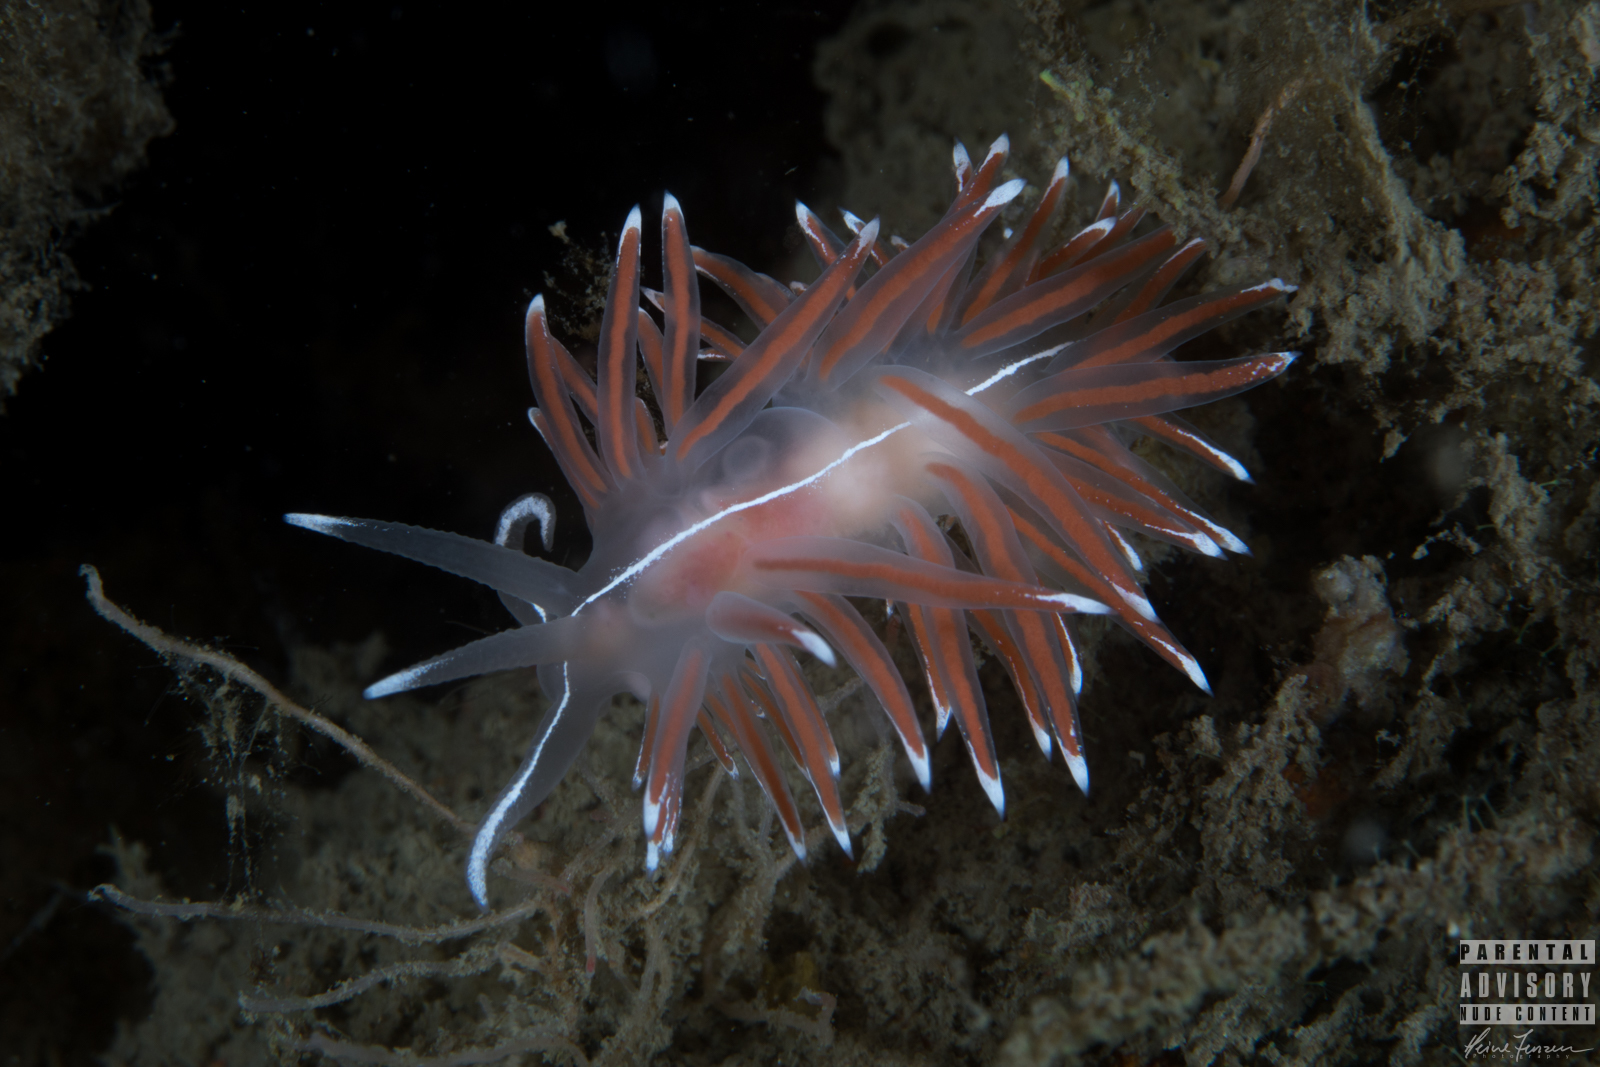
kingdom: Animalia
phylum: Mollusca
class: Gastropoda
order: Nudibranchia
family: Coryphellidae
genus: Coryphella
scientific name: Coryphella lineata
